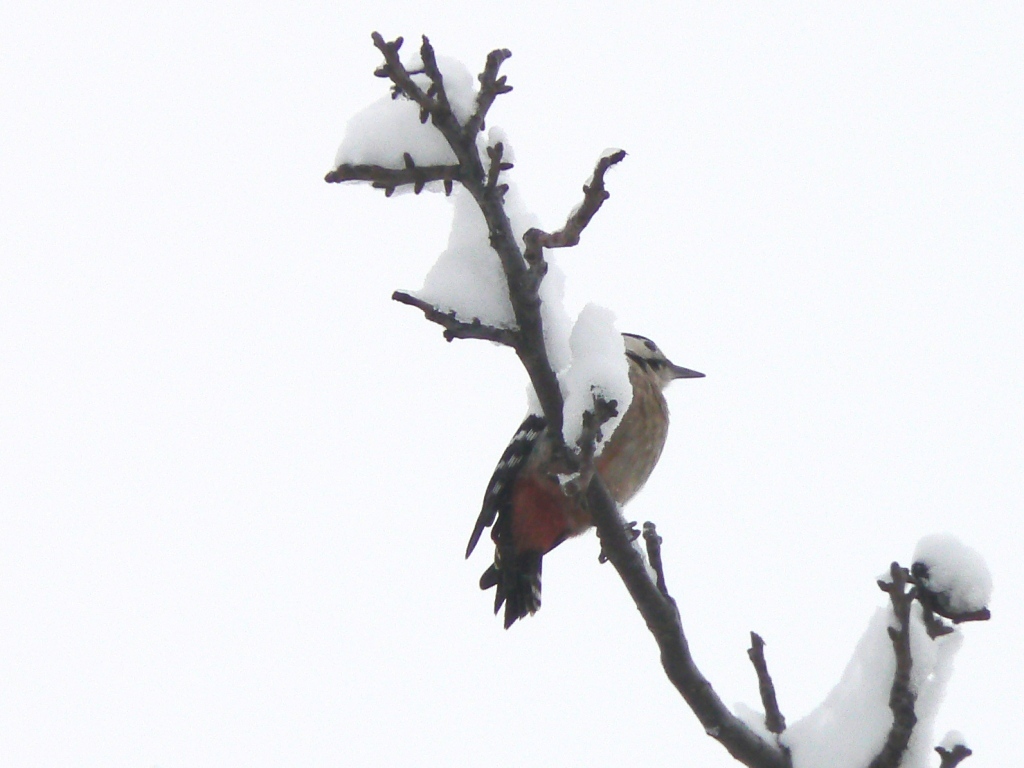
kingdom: Animalia
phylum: Chordata
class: Aves
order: Piciformes
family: Picidae
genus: Dendrocopos
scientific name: Dendrocopos major
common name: Great spotted woodpecker
